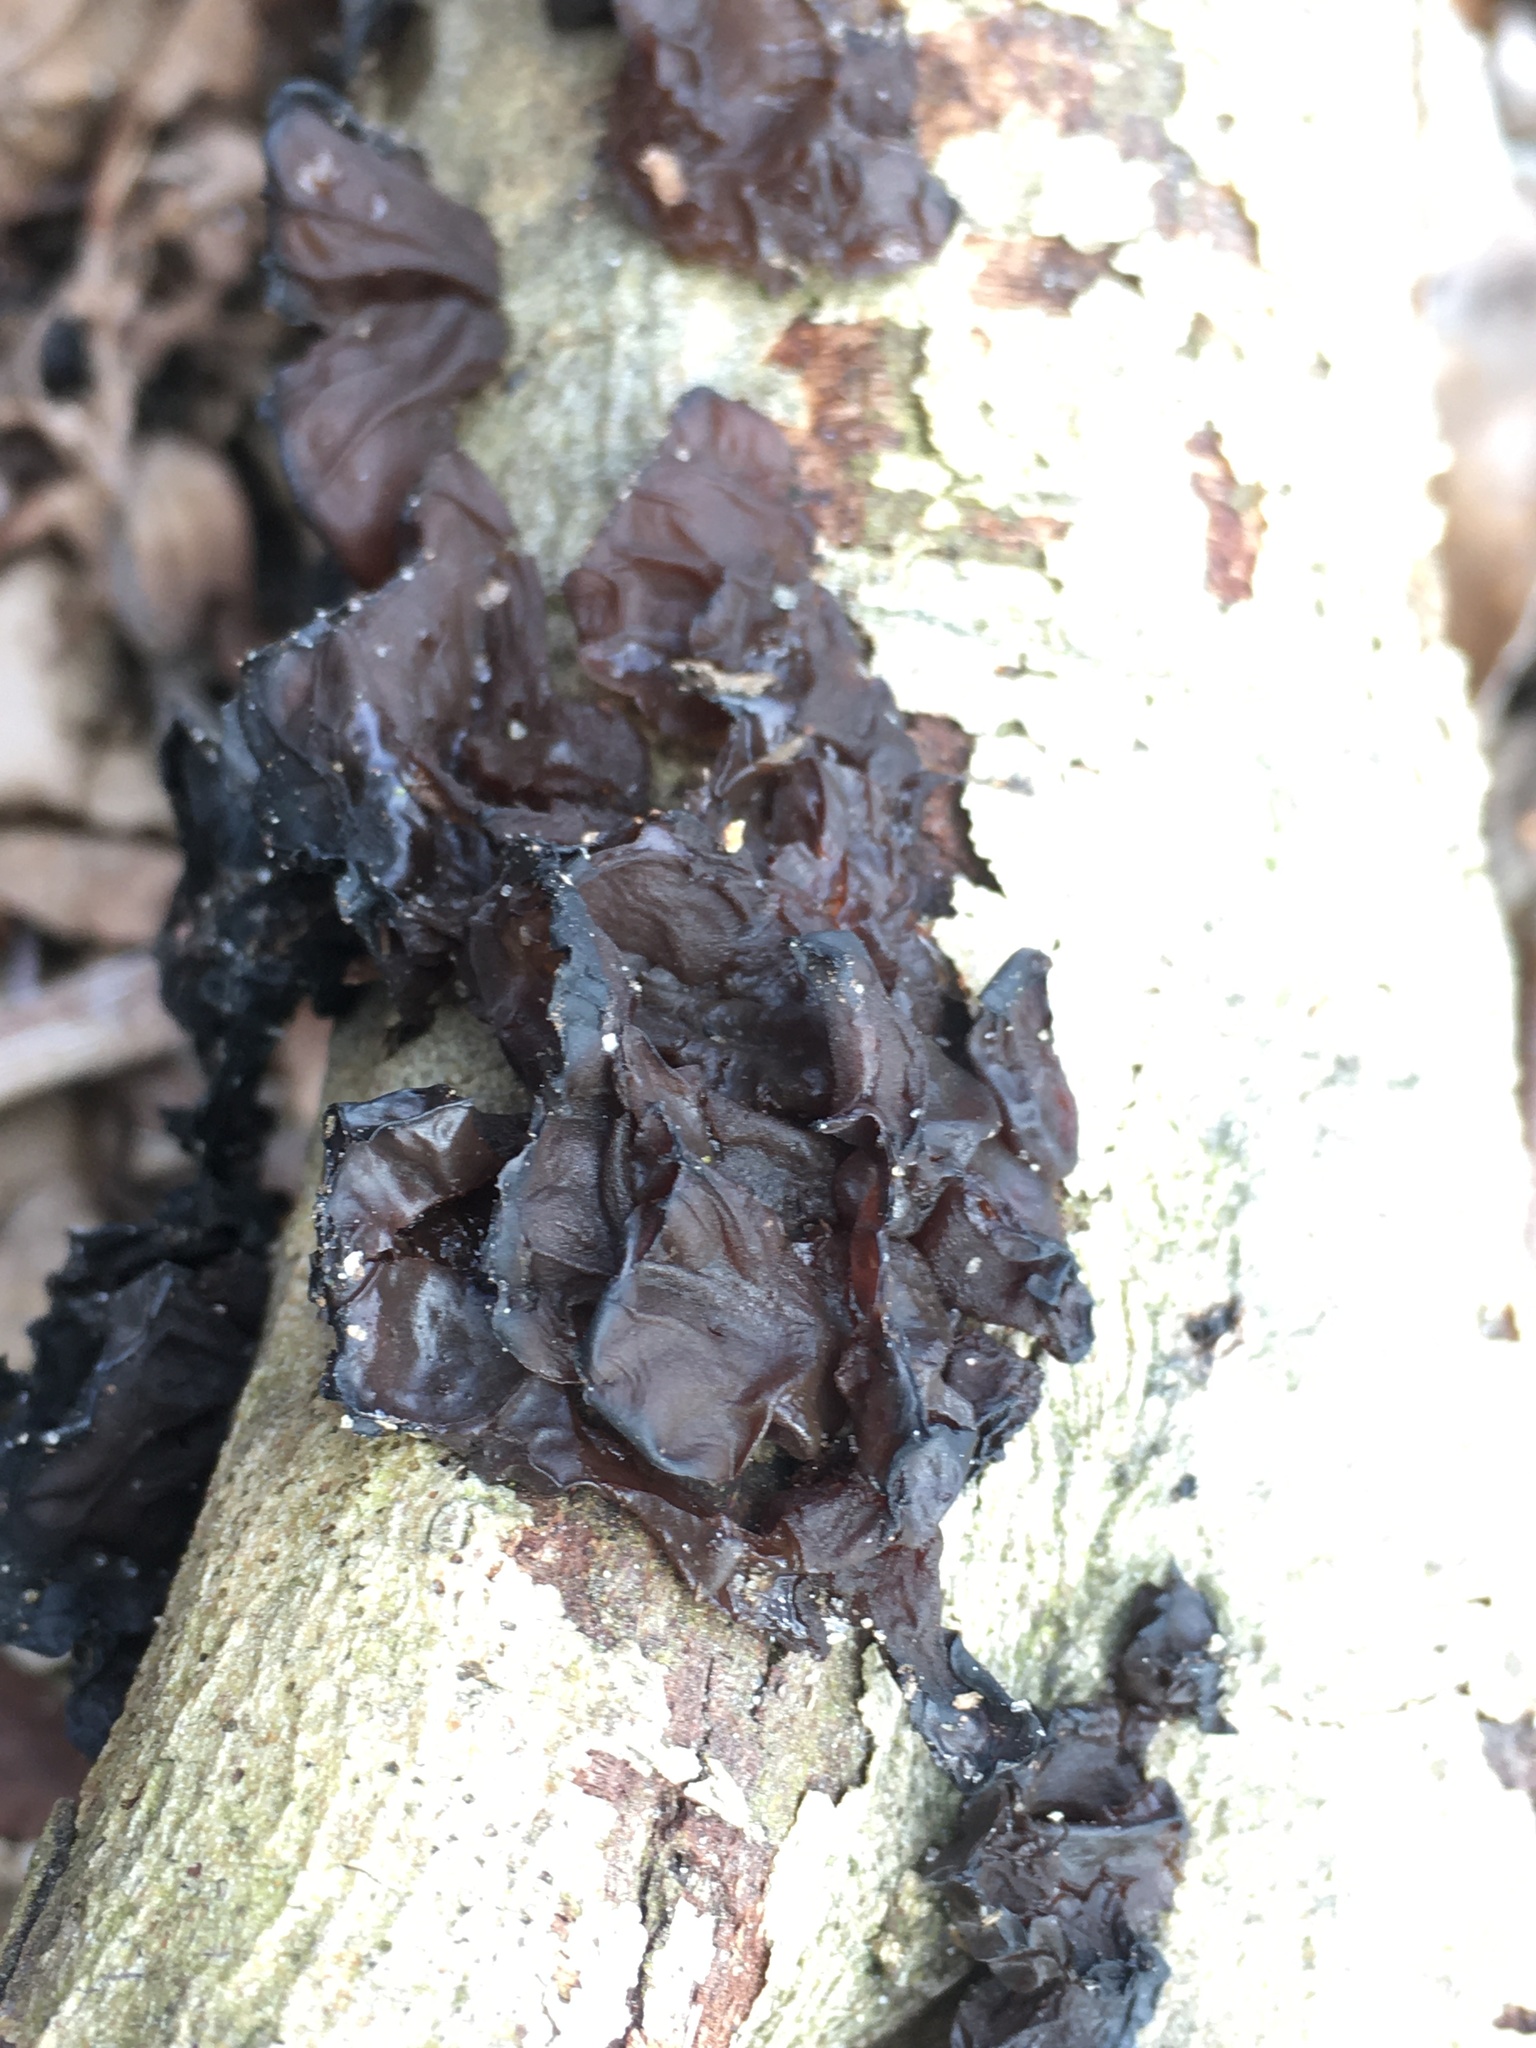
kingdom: Fungi
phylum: Basidiomycota
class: Agaricomycetes
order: Auriculariales
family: Auriculariaceae
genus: Exidia
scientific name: Exidia
